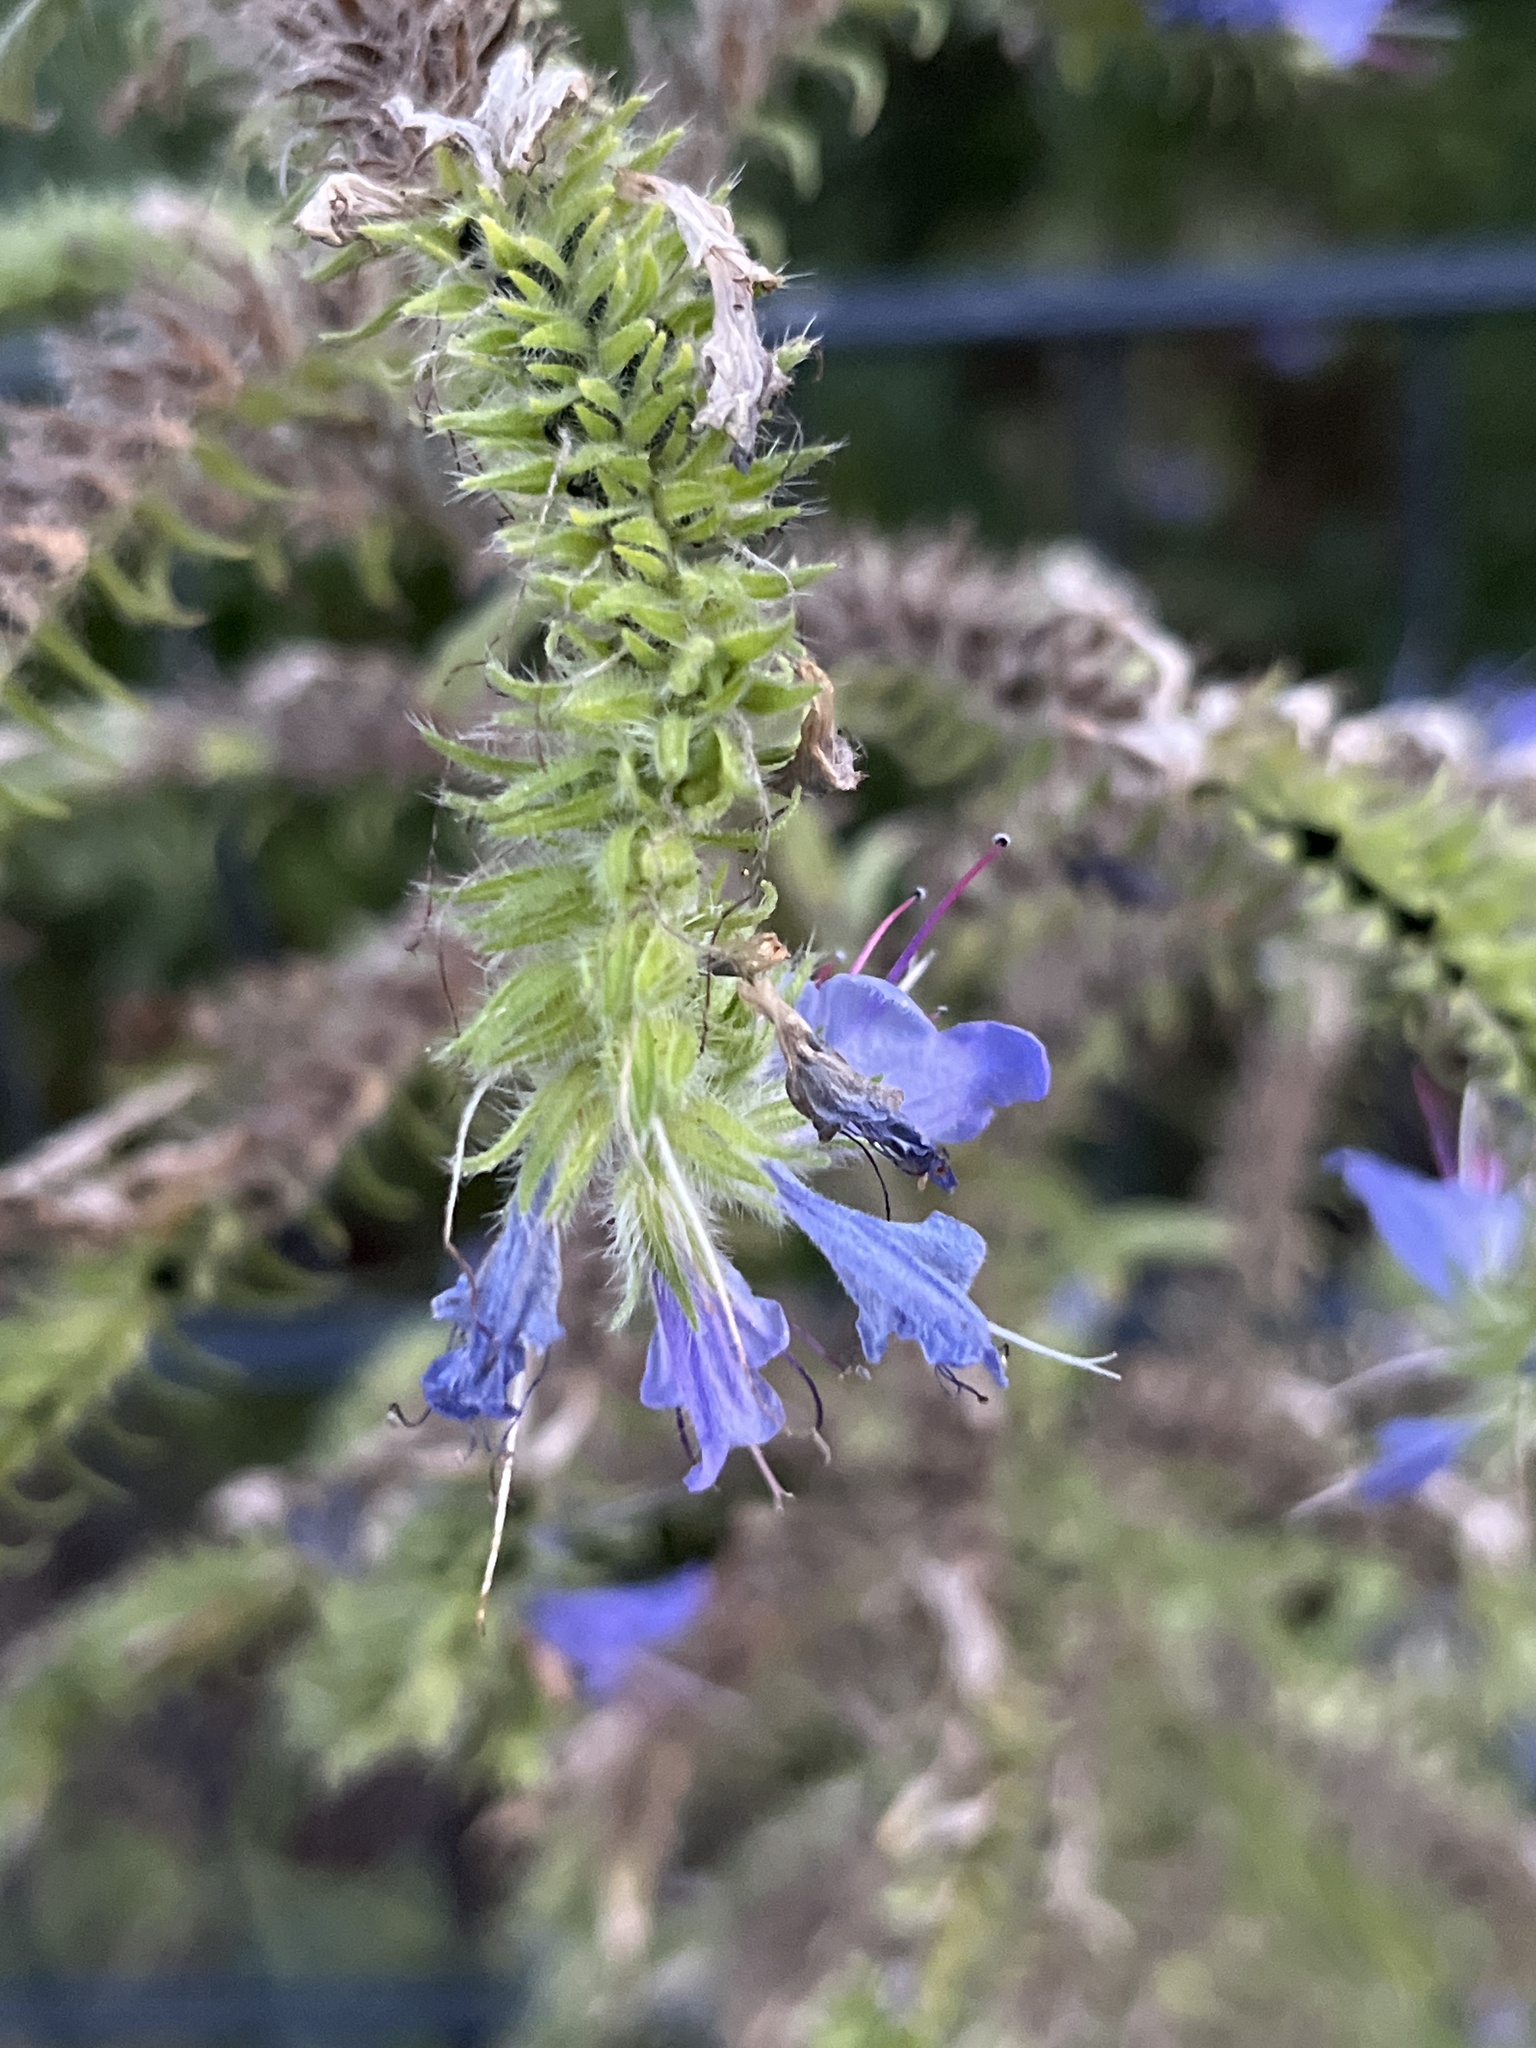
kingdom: Plantae
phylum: Tracheophyta
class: Magnoliopsida
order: Boraginales
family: Boraginaceae
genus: Echium
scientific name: Echium vulgare
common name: Common viper's bugloss
